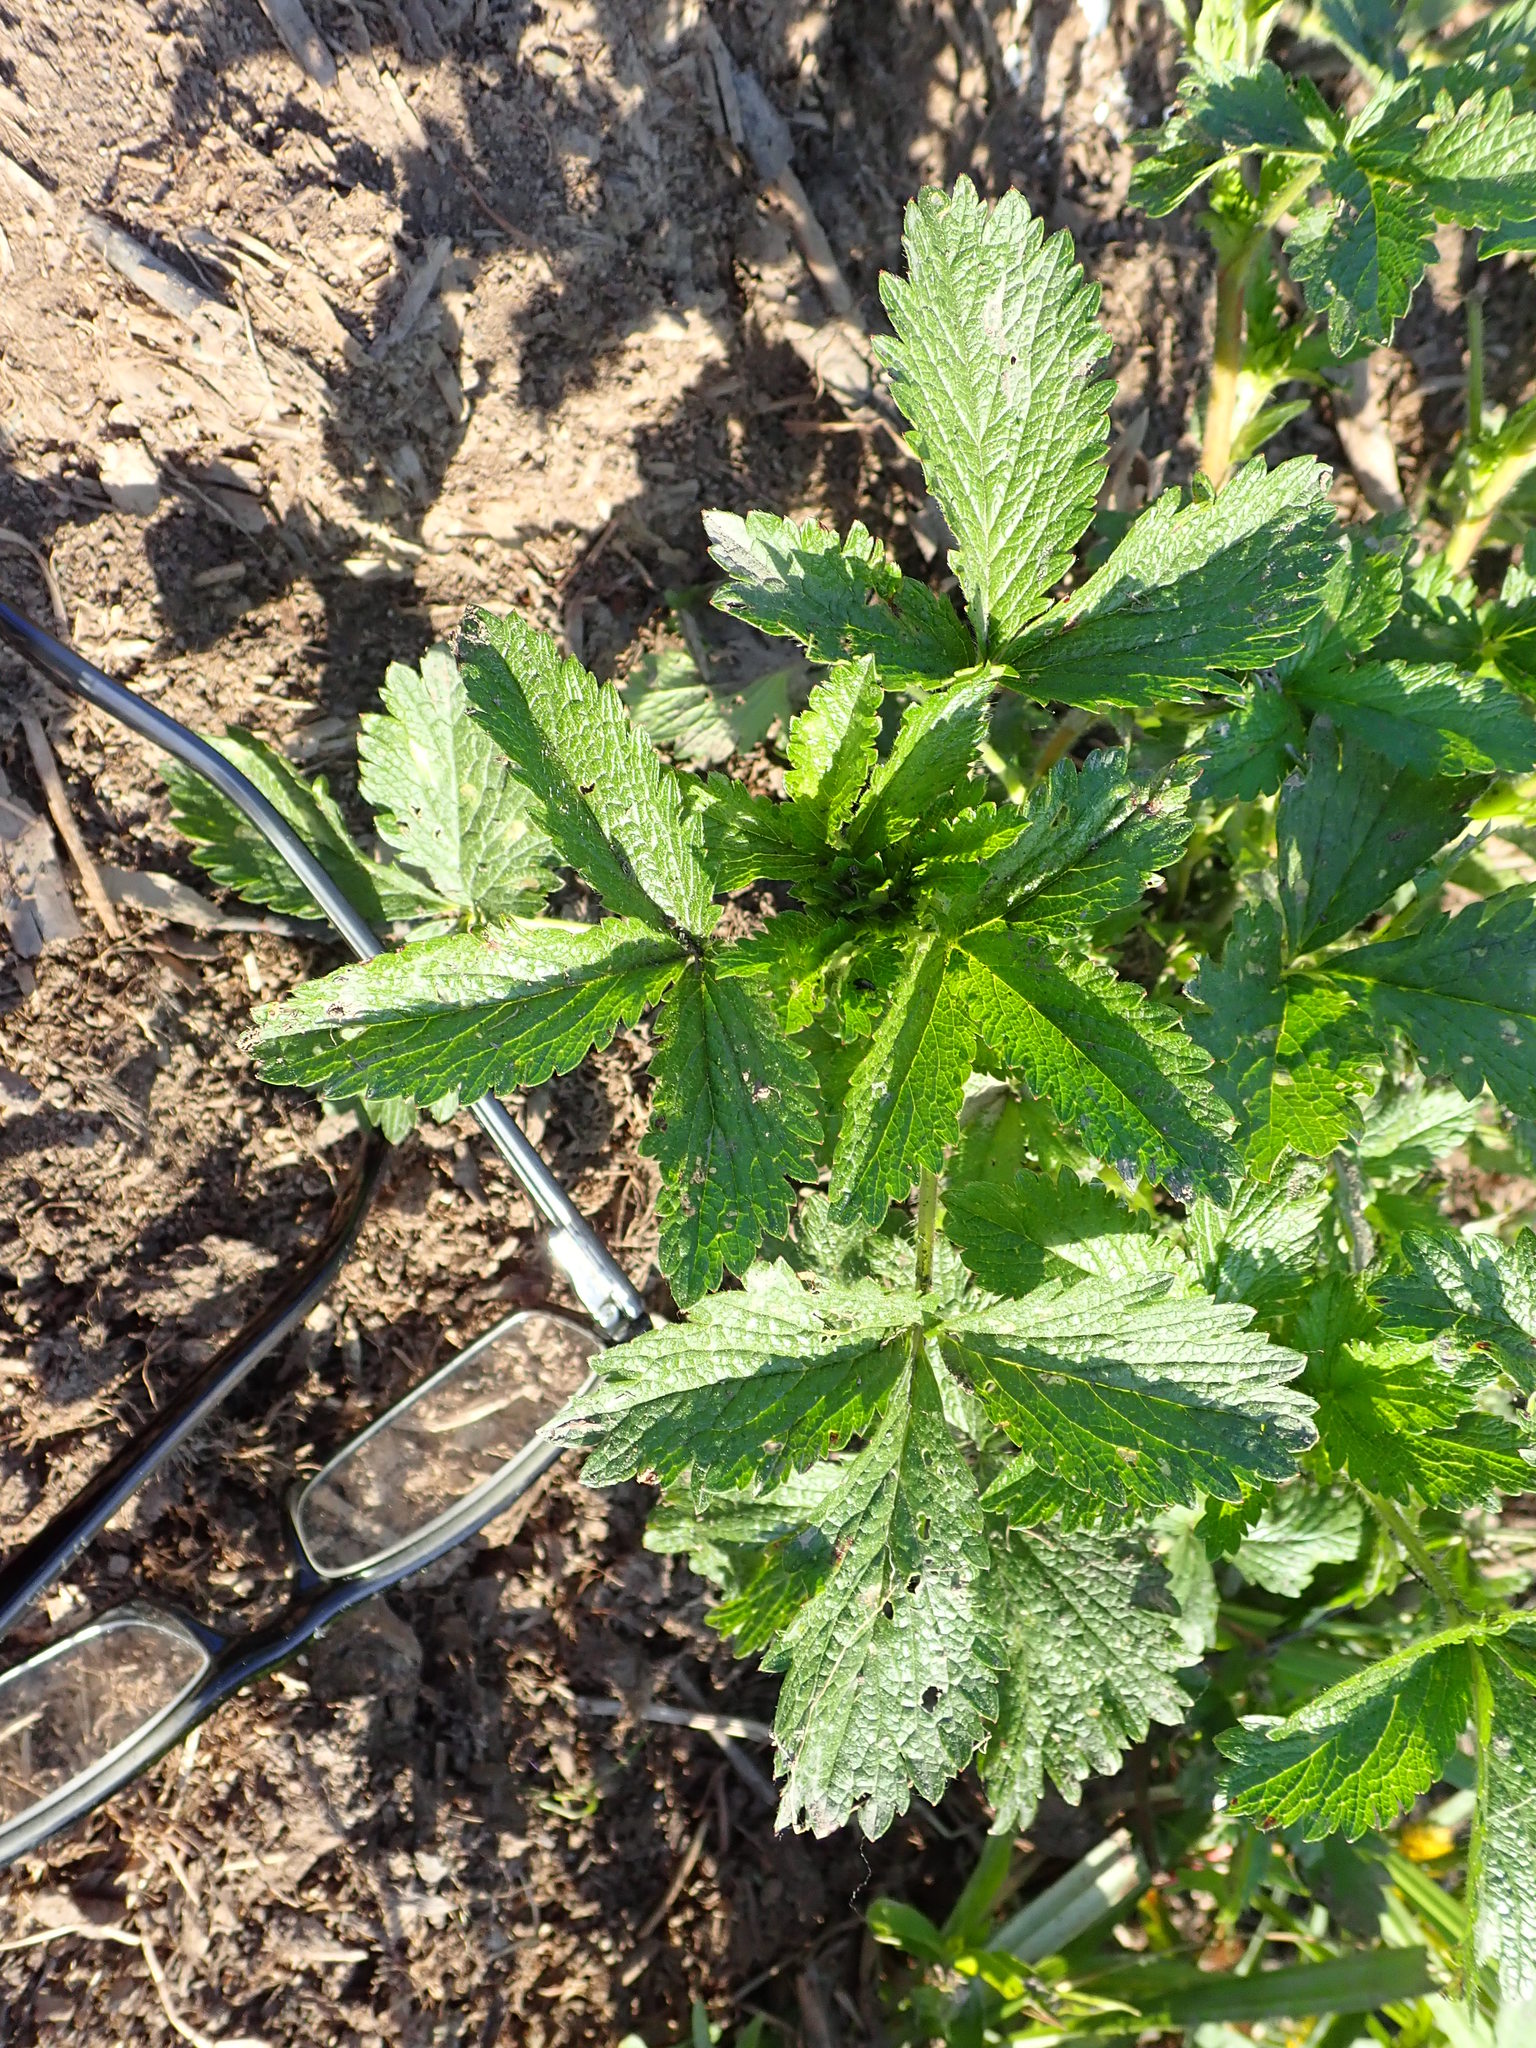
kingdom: Plantae
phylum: Tracheophyta
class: Magnoliopsida
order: Rosales
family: Rosaceae
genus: Potentilla
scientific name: Potentilla norvegica
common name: Ternate-leaved cinquefoil
